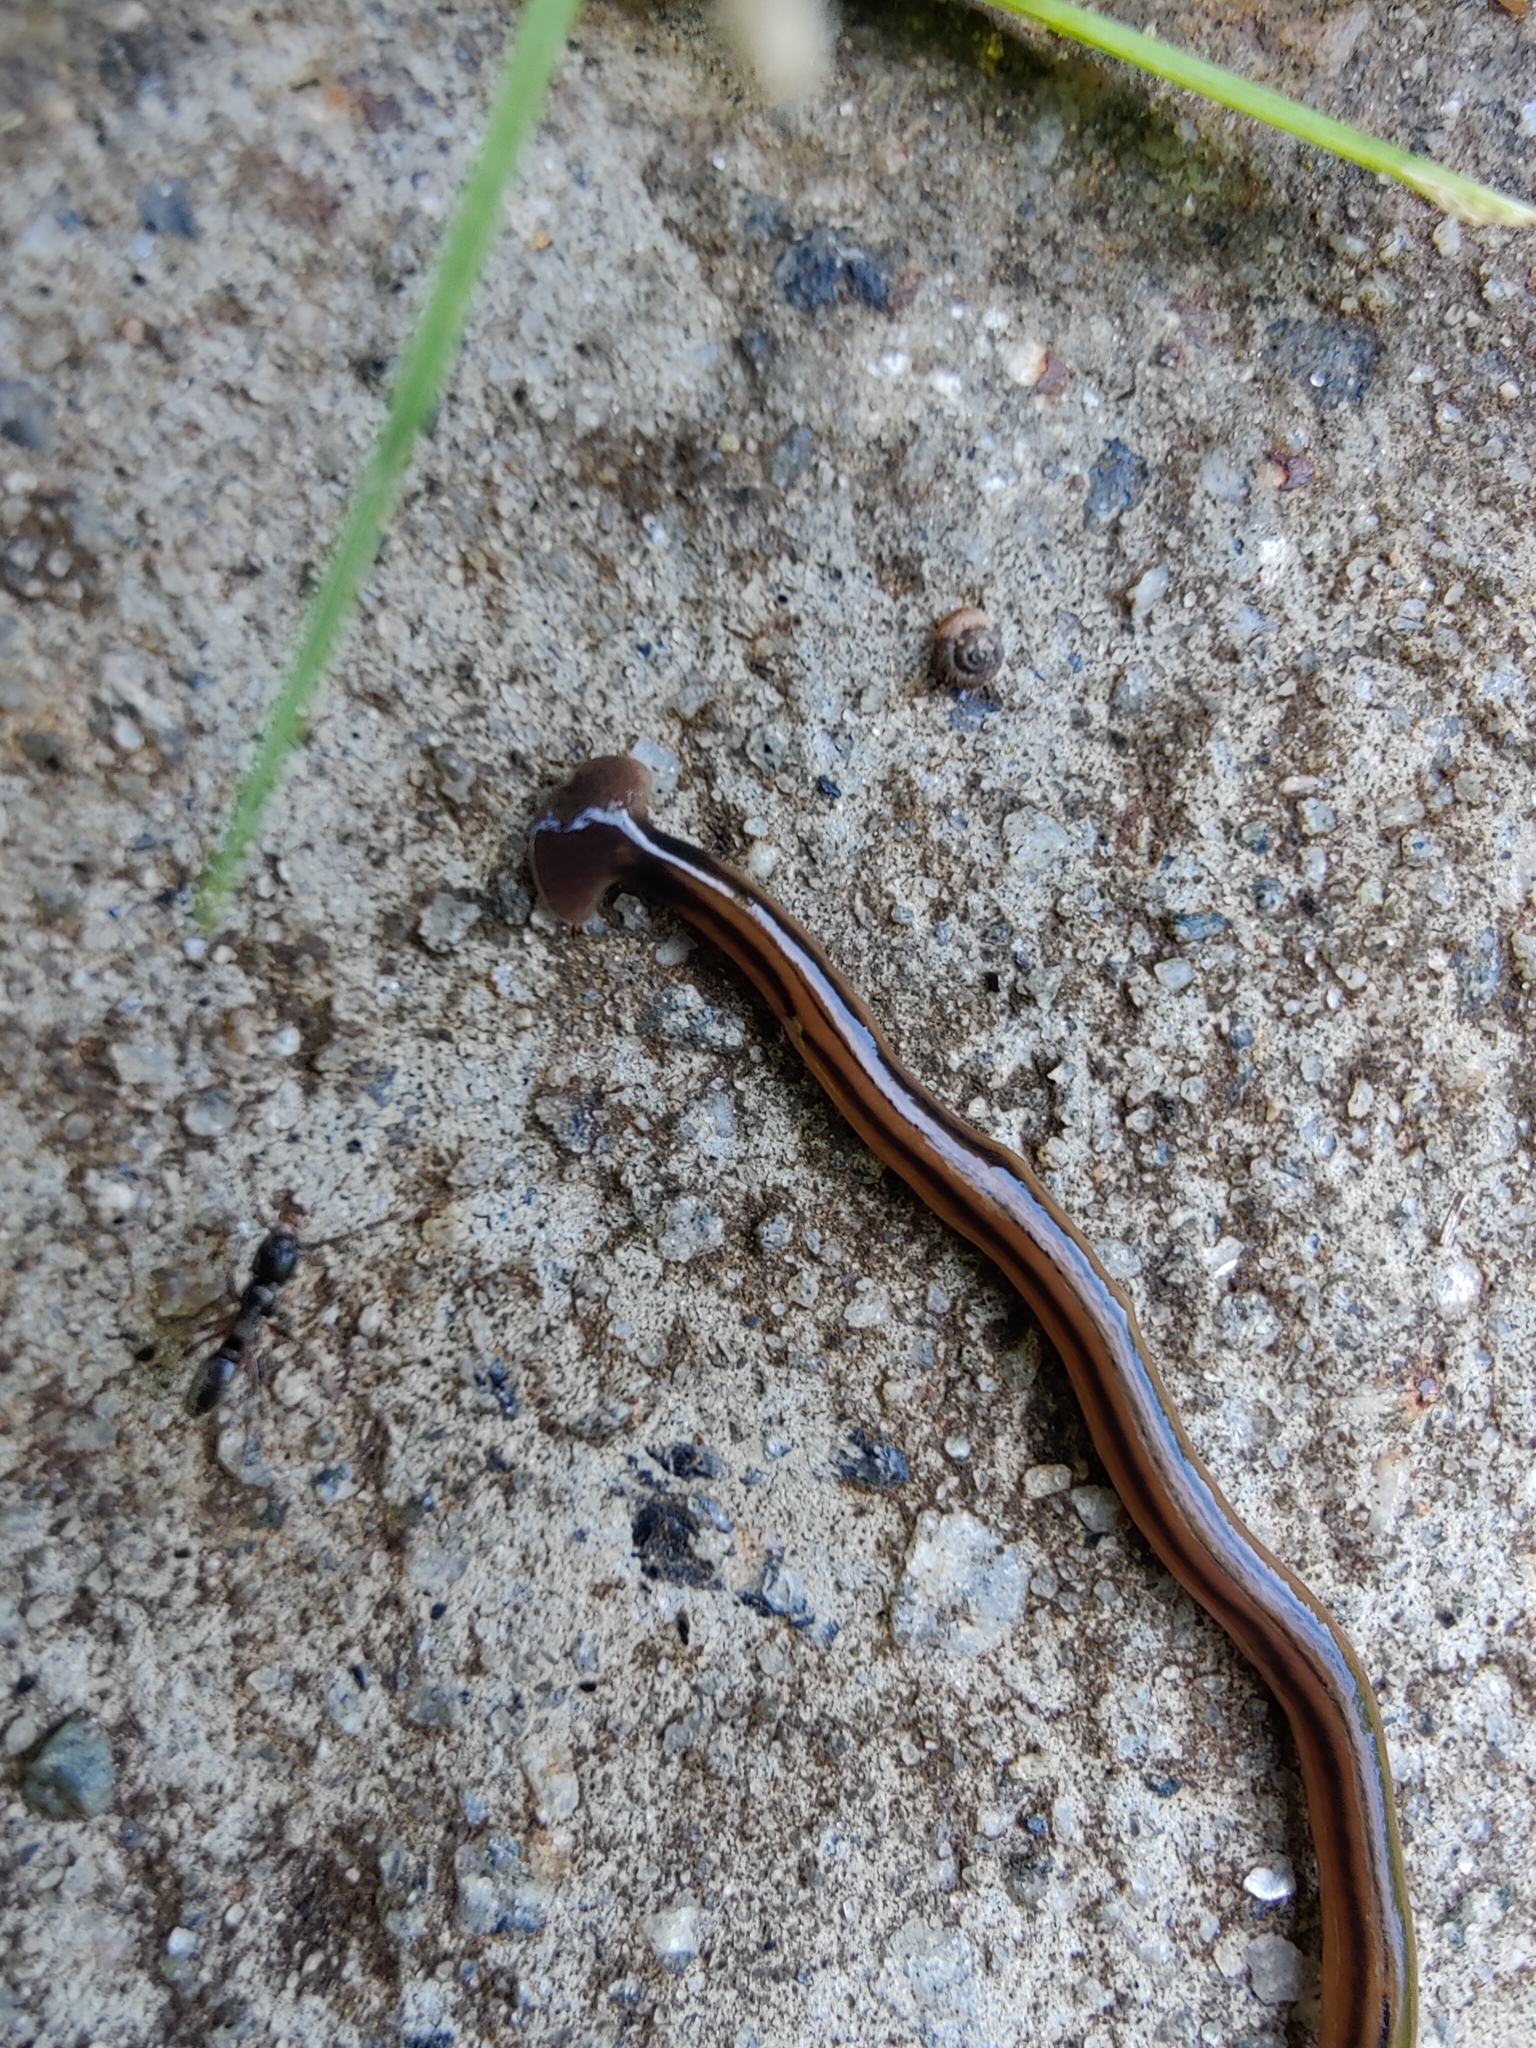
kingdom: Animalia
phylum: Platyhelminthes
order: Tricladida
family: Geoplanidae
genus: Bipalium
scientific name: Bipalium kewense
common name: Hammerhead flatworm
